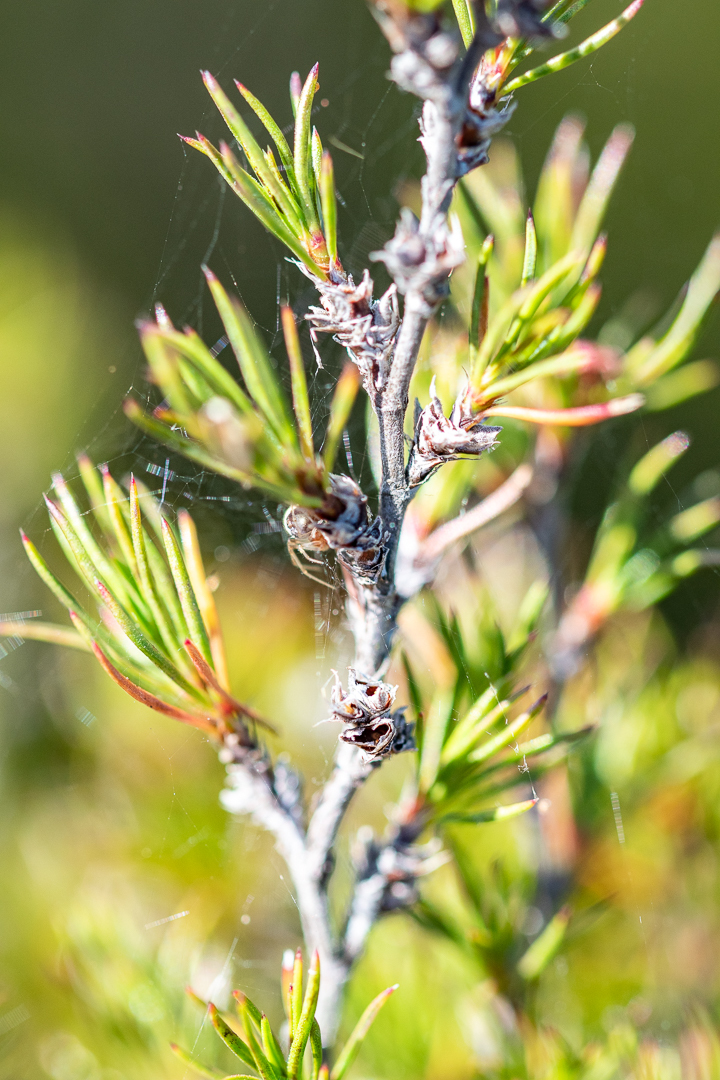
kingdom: Plantae
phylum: Tracheophyta
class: Magnoliopsida
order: Rosales
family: Rosaceae
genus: Cliffortia
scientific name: Cliffortia atrata
